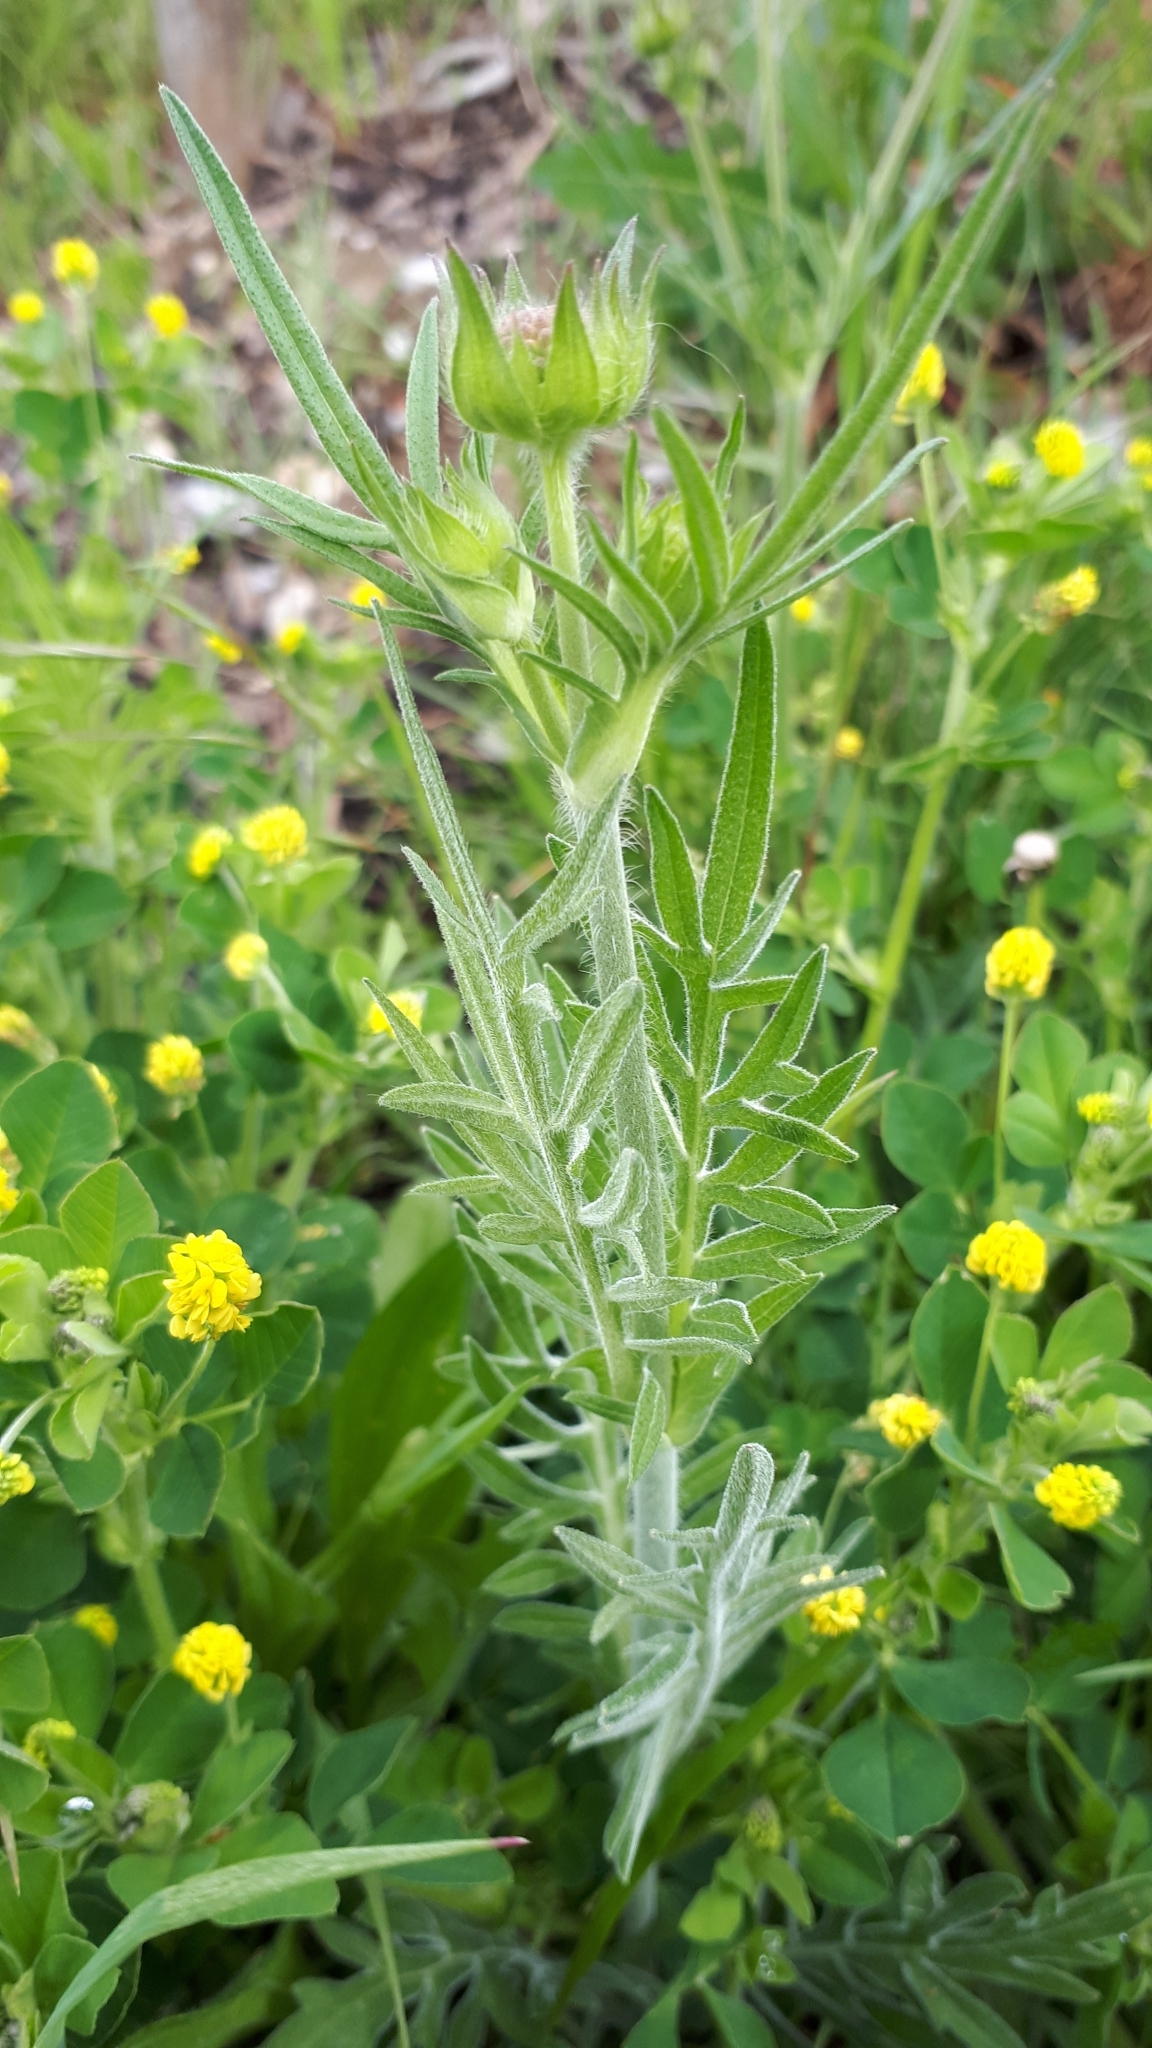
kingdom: Plantae
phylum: Tracheophyta
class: Magnoliopsida
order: Dipsacales
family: Caprifoliaceae
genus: Knautia
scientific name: Knautia arvensis
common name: Field scabiosa
